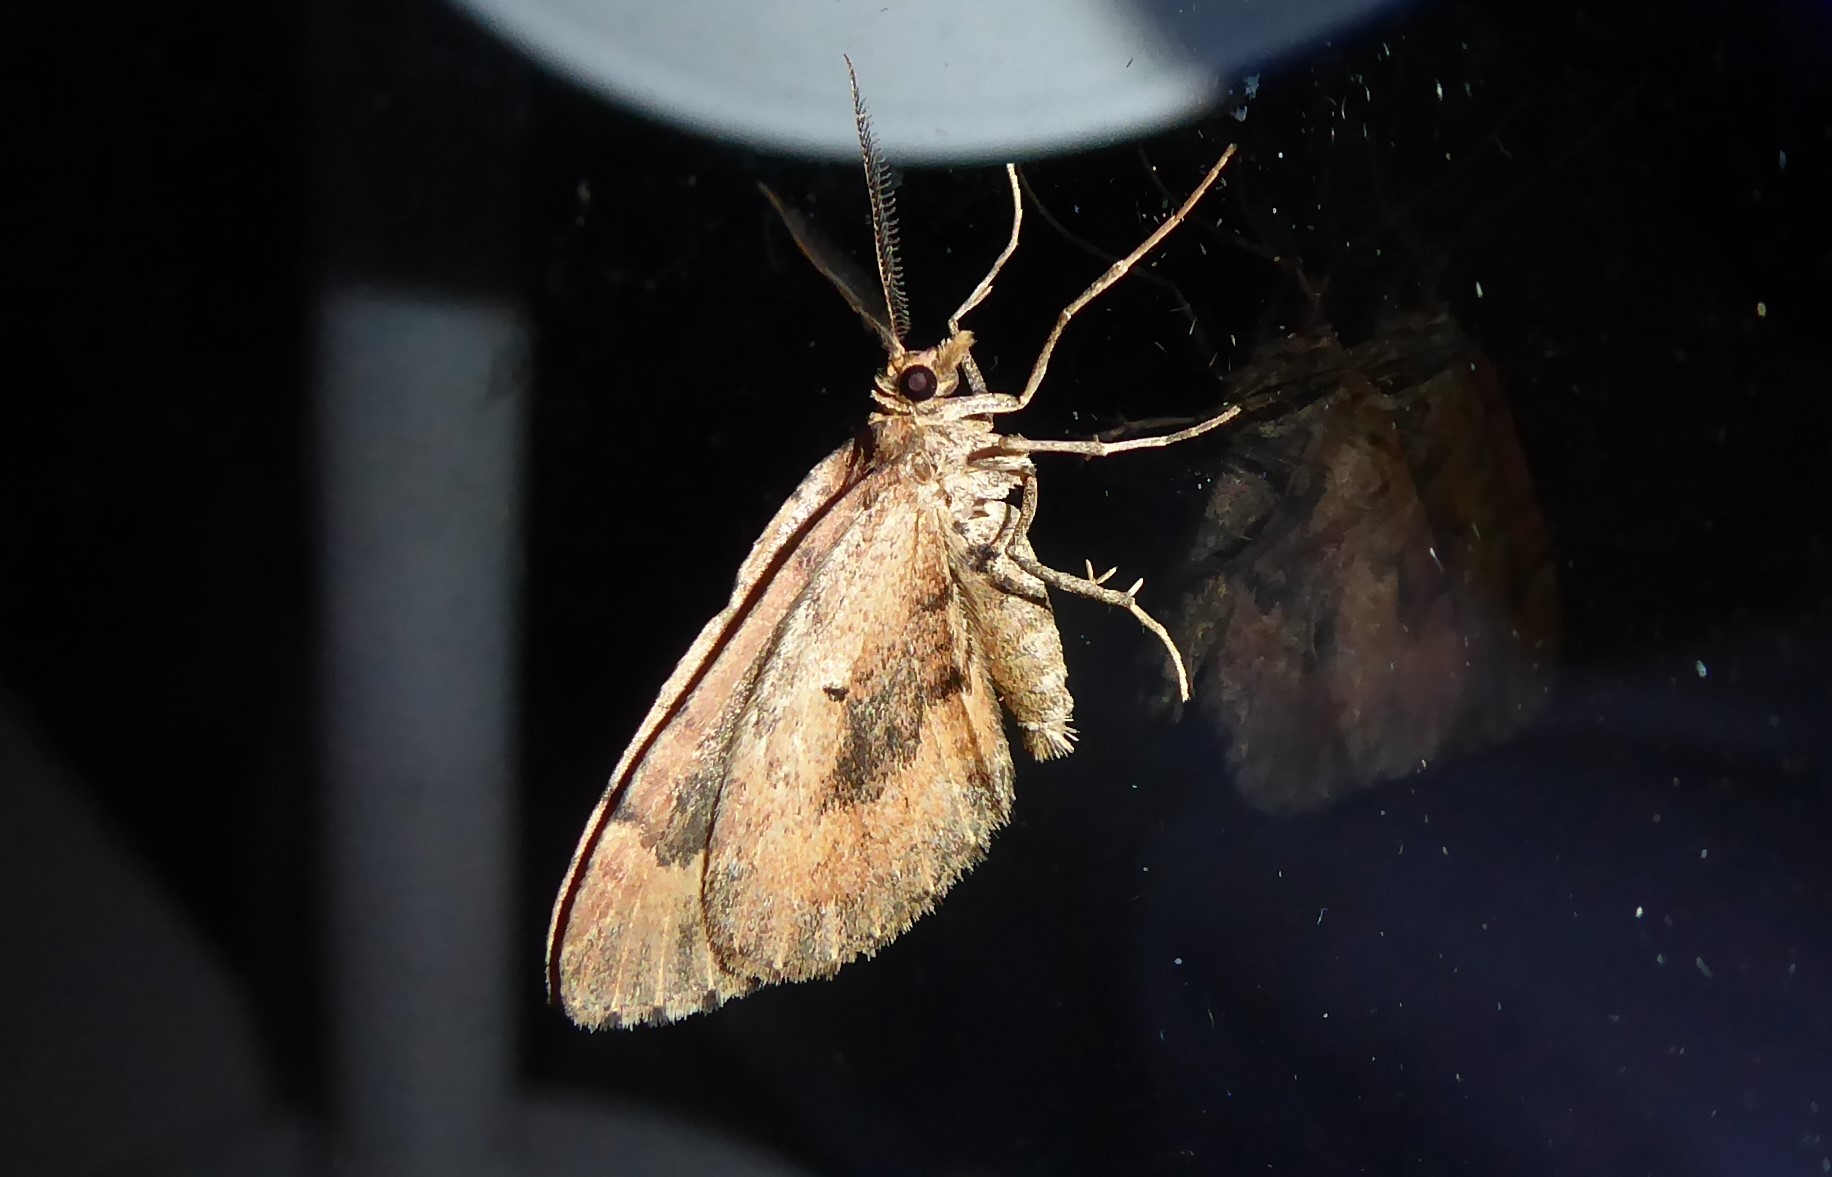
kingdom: Animalia
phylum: Arthropoda
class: Insecta
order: Lepidoptera
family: Geometridae
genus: Asaphodes
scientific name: Asaphodes aegrota
